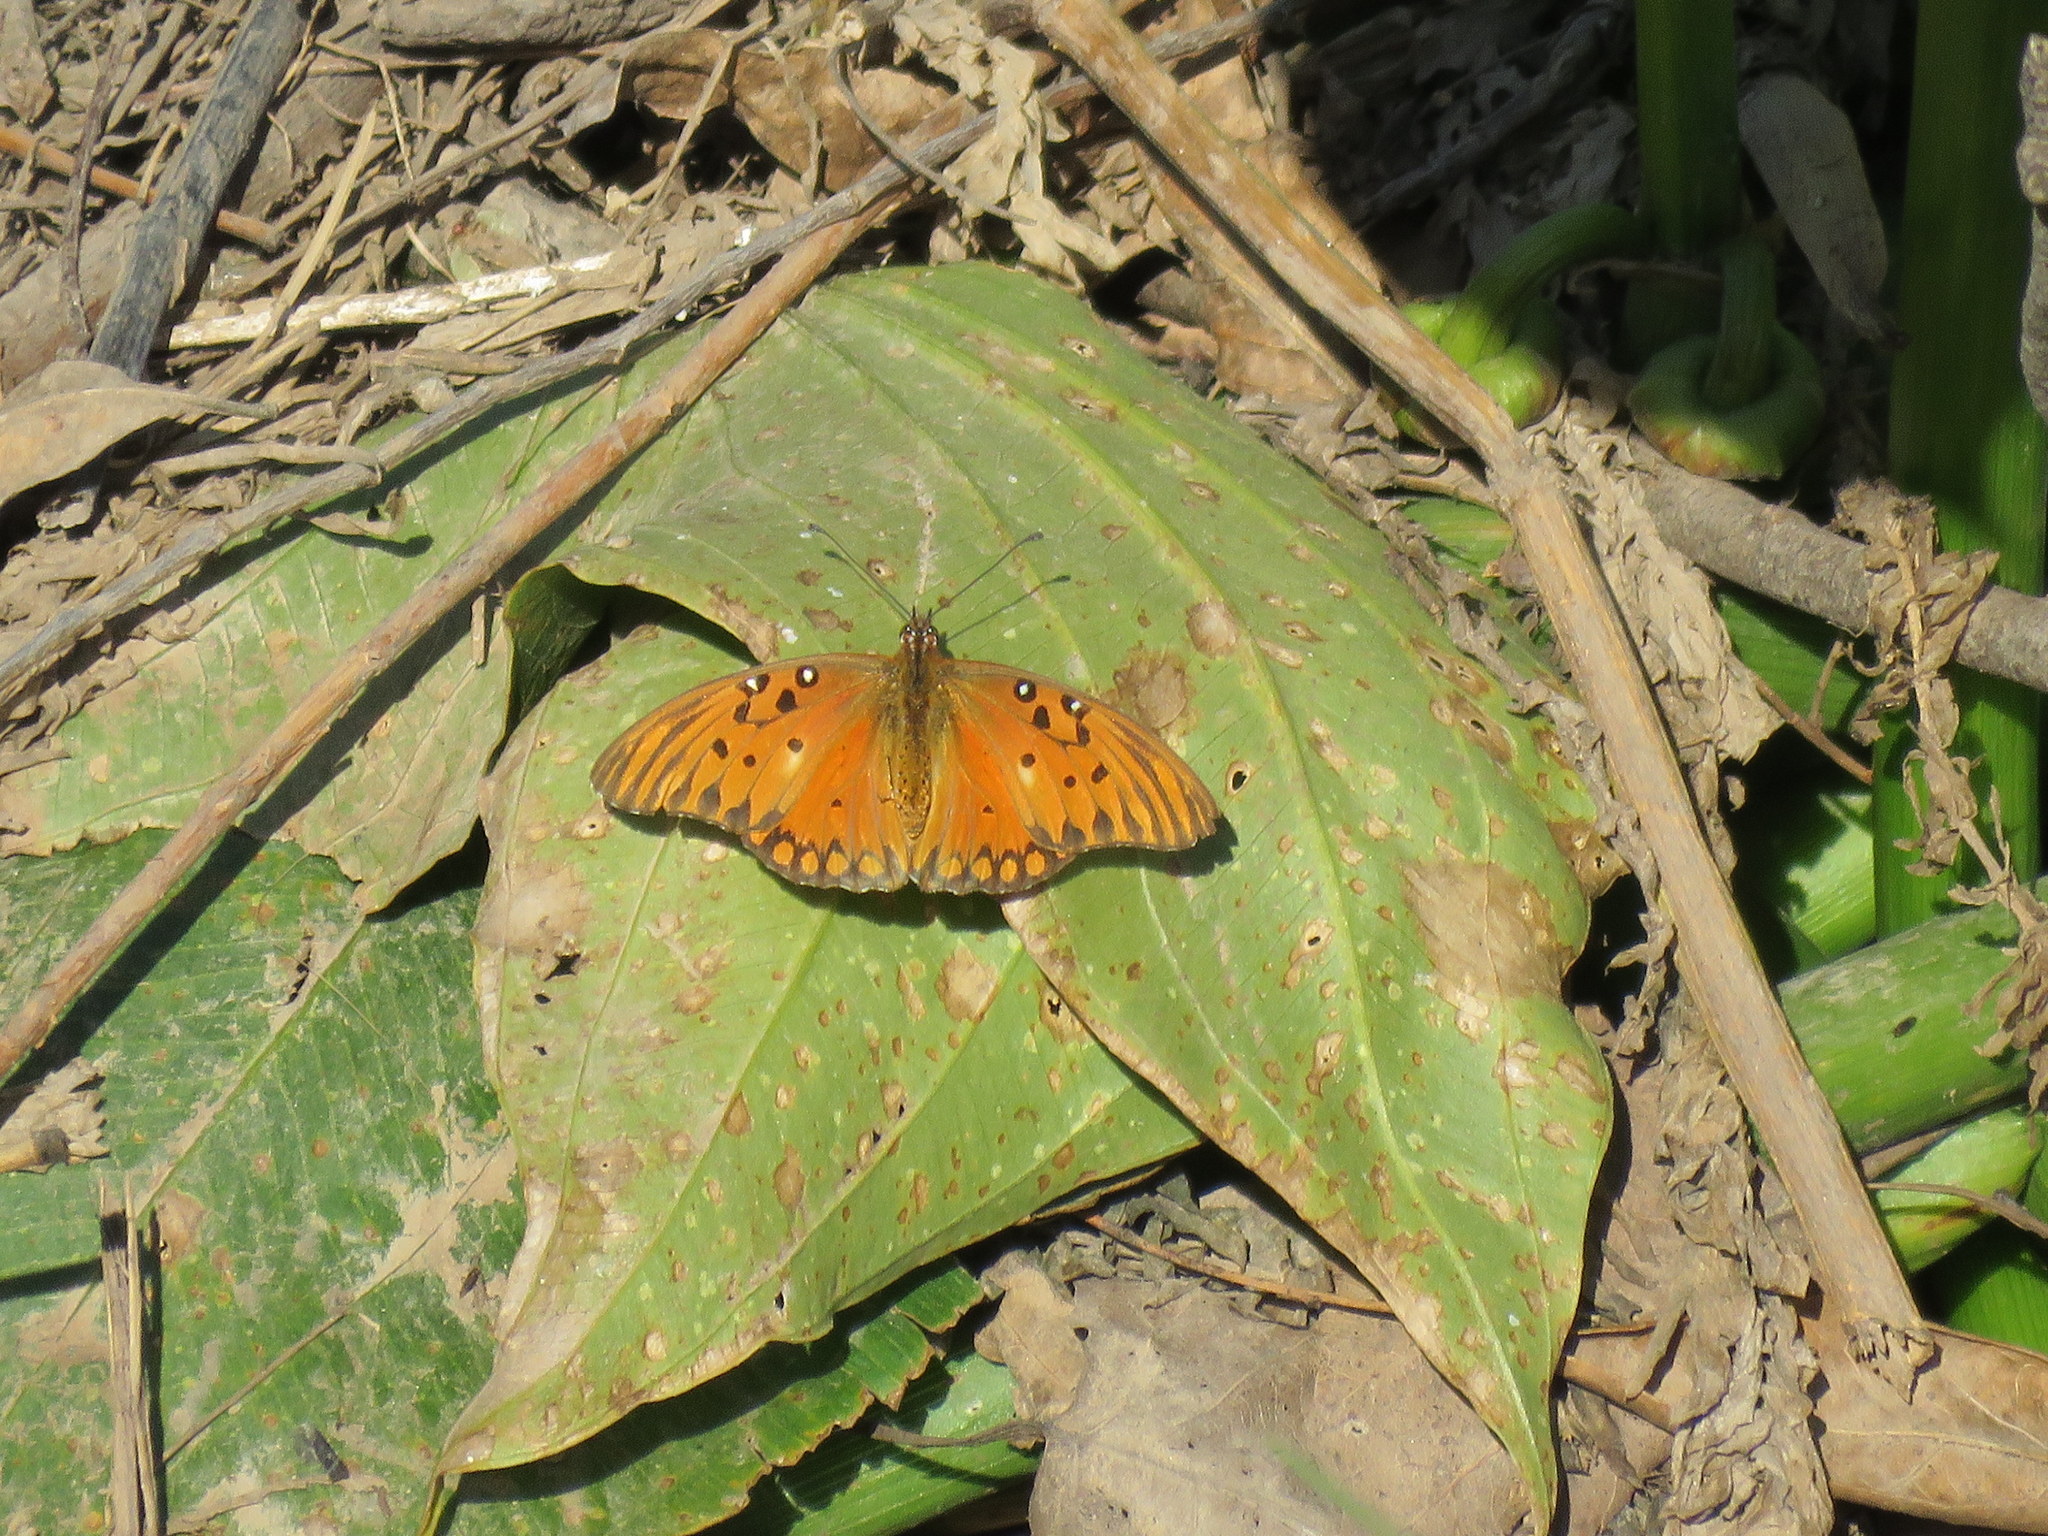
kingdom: Animalia
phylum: Arthropoda
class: Insecta
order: Lepidoptera
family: Nymphalidae
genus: Dione
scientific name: Dione vanillae
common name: Gulf fritillary
